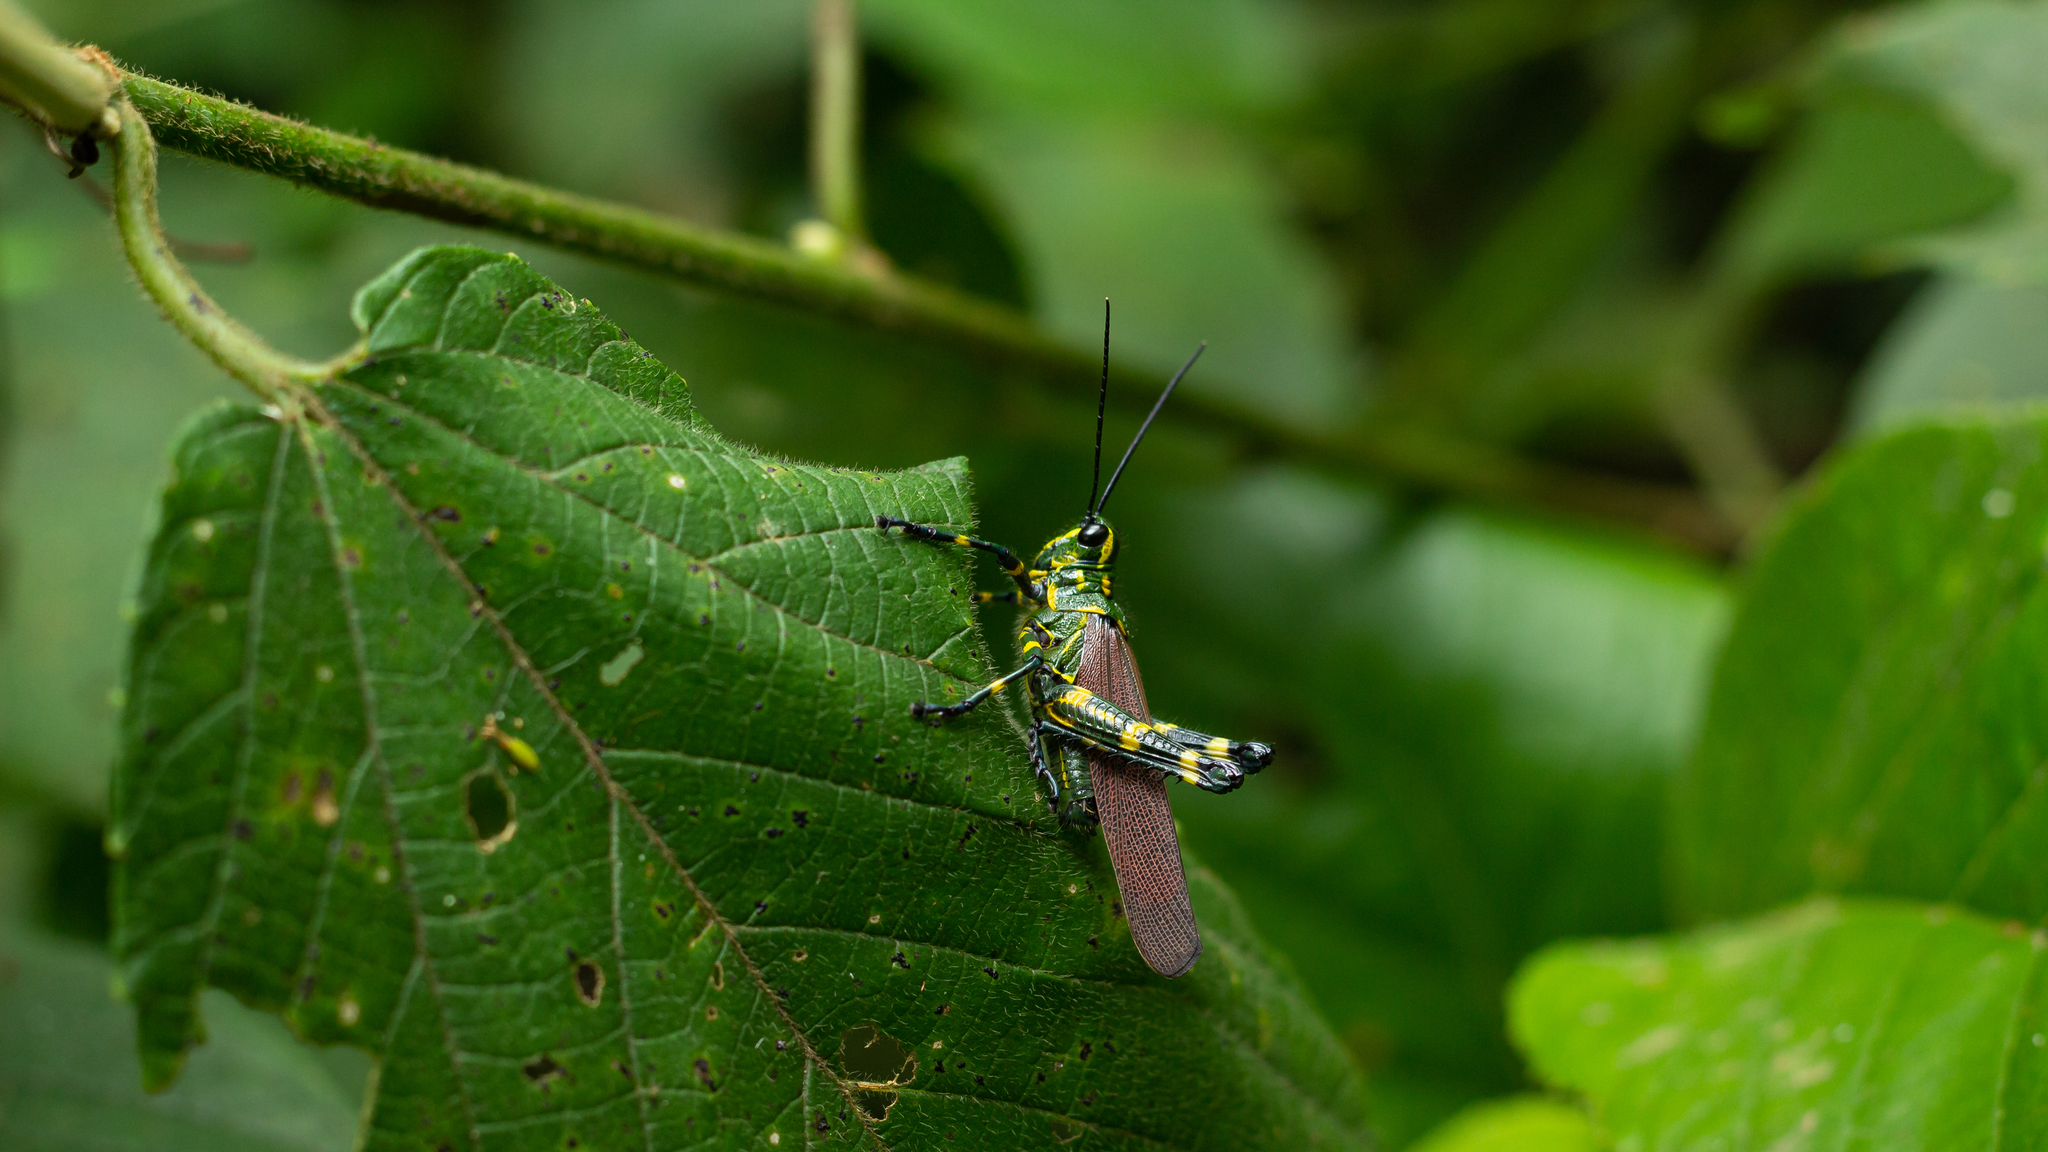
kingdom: Animalia
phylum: Arthropoda
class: Insecta
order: Orthoptera
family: Romaleidae
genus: Chromacris
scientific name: Chromacris speciosa
